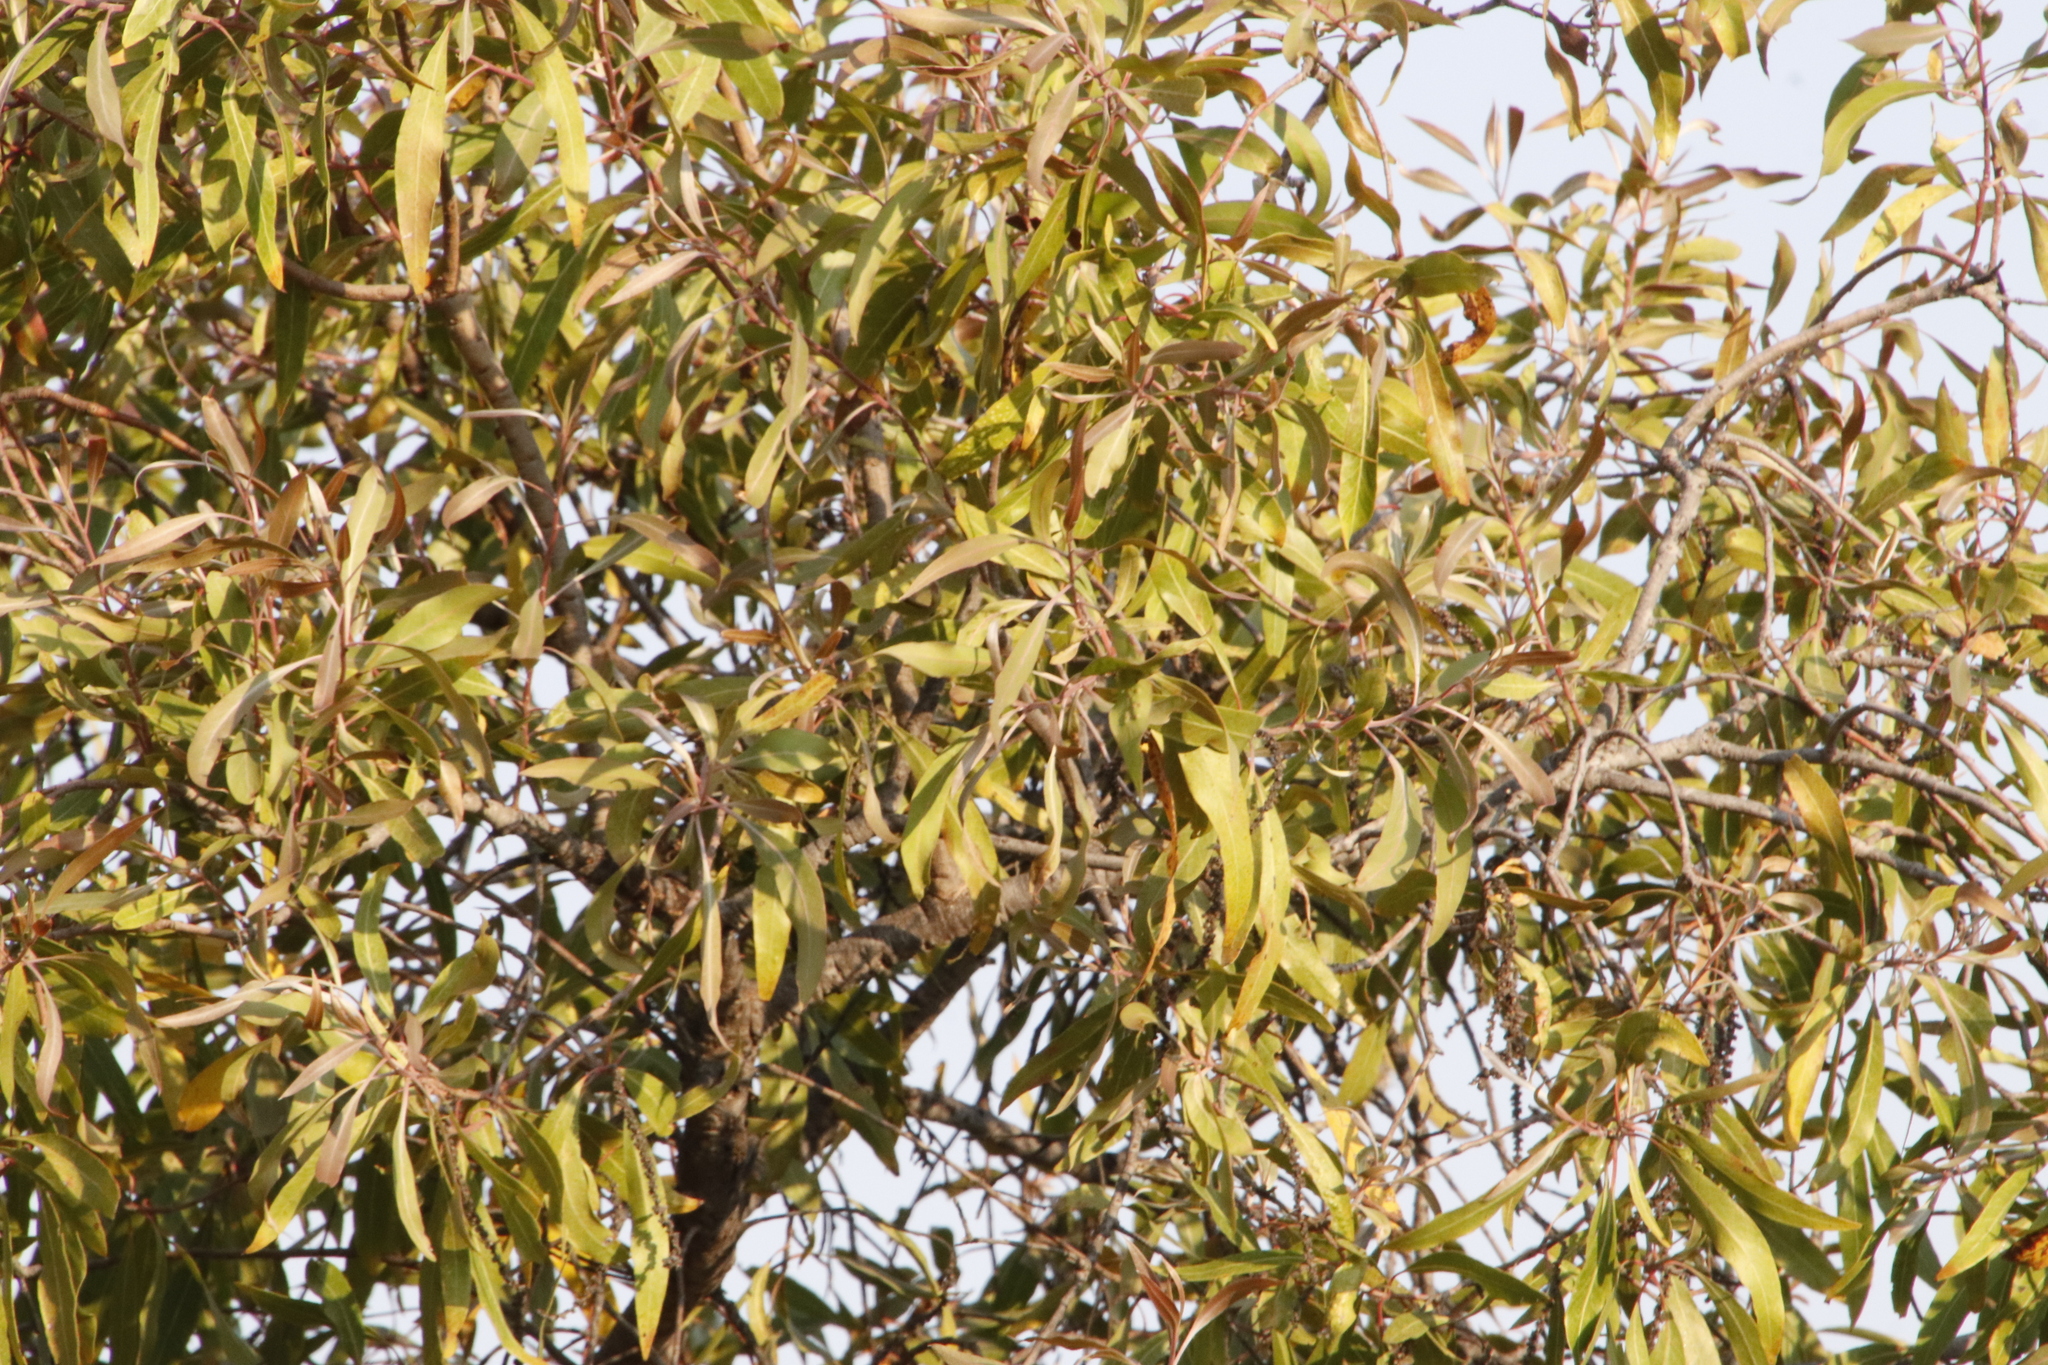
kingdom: Plantae
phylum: Tracheophyta
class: Magnoliopsida
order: Proteales
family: Proteaceae
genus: Faurea
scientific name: Faurea saligna
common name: African bean
